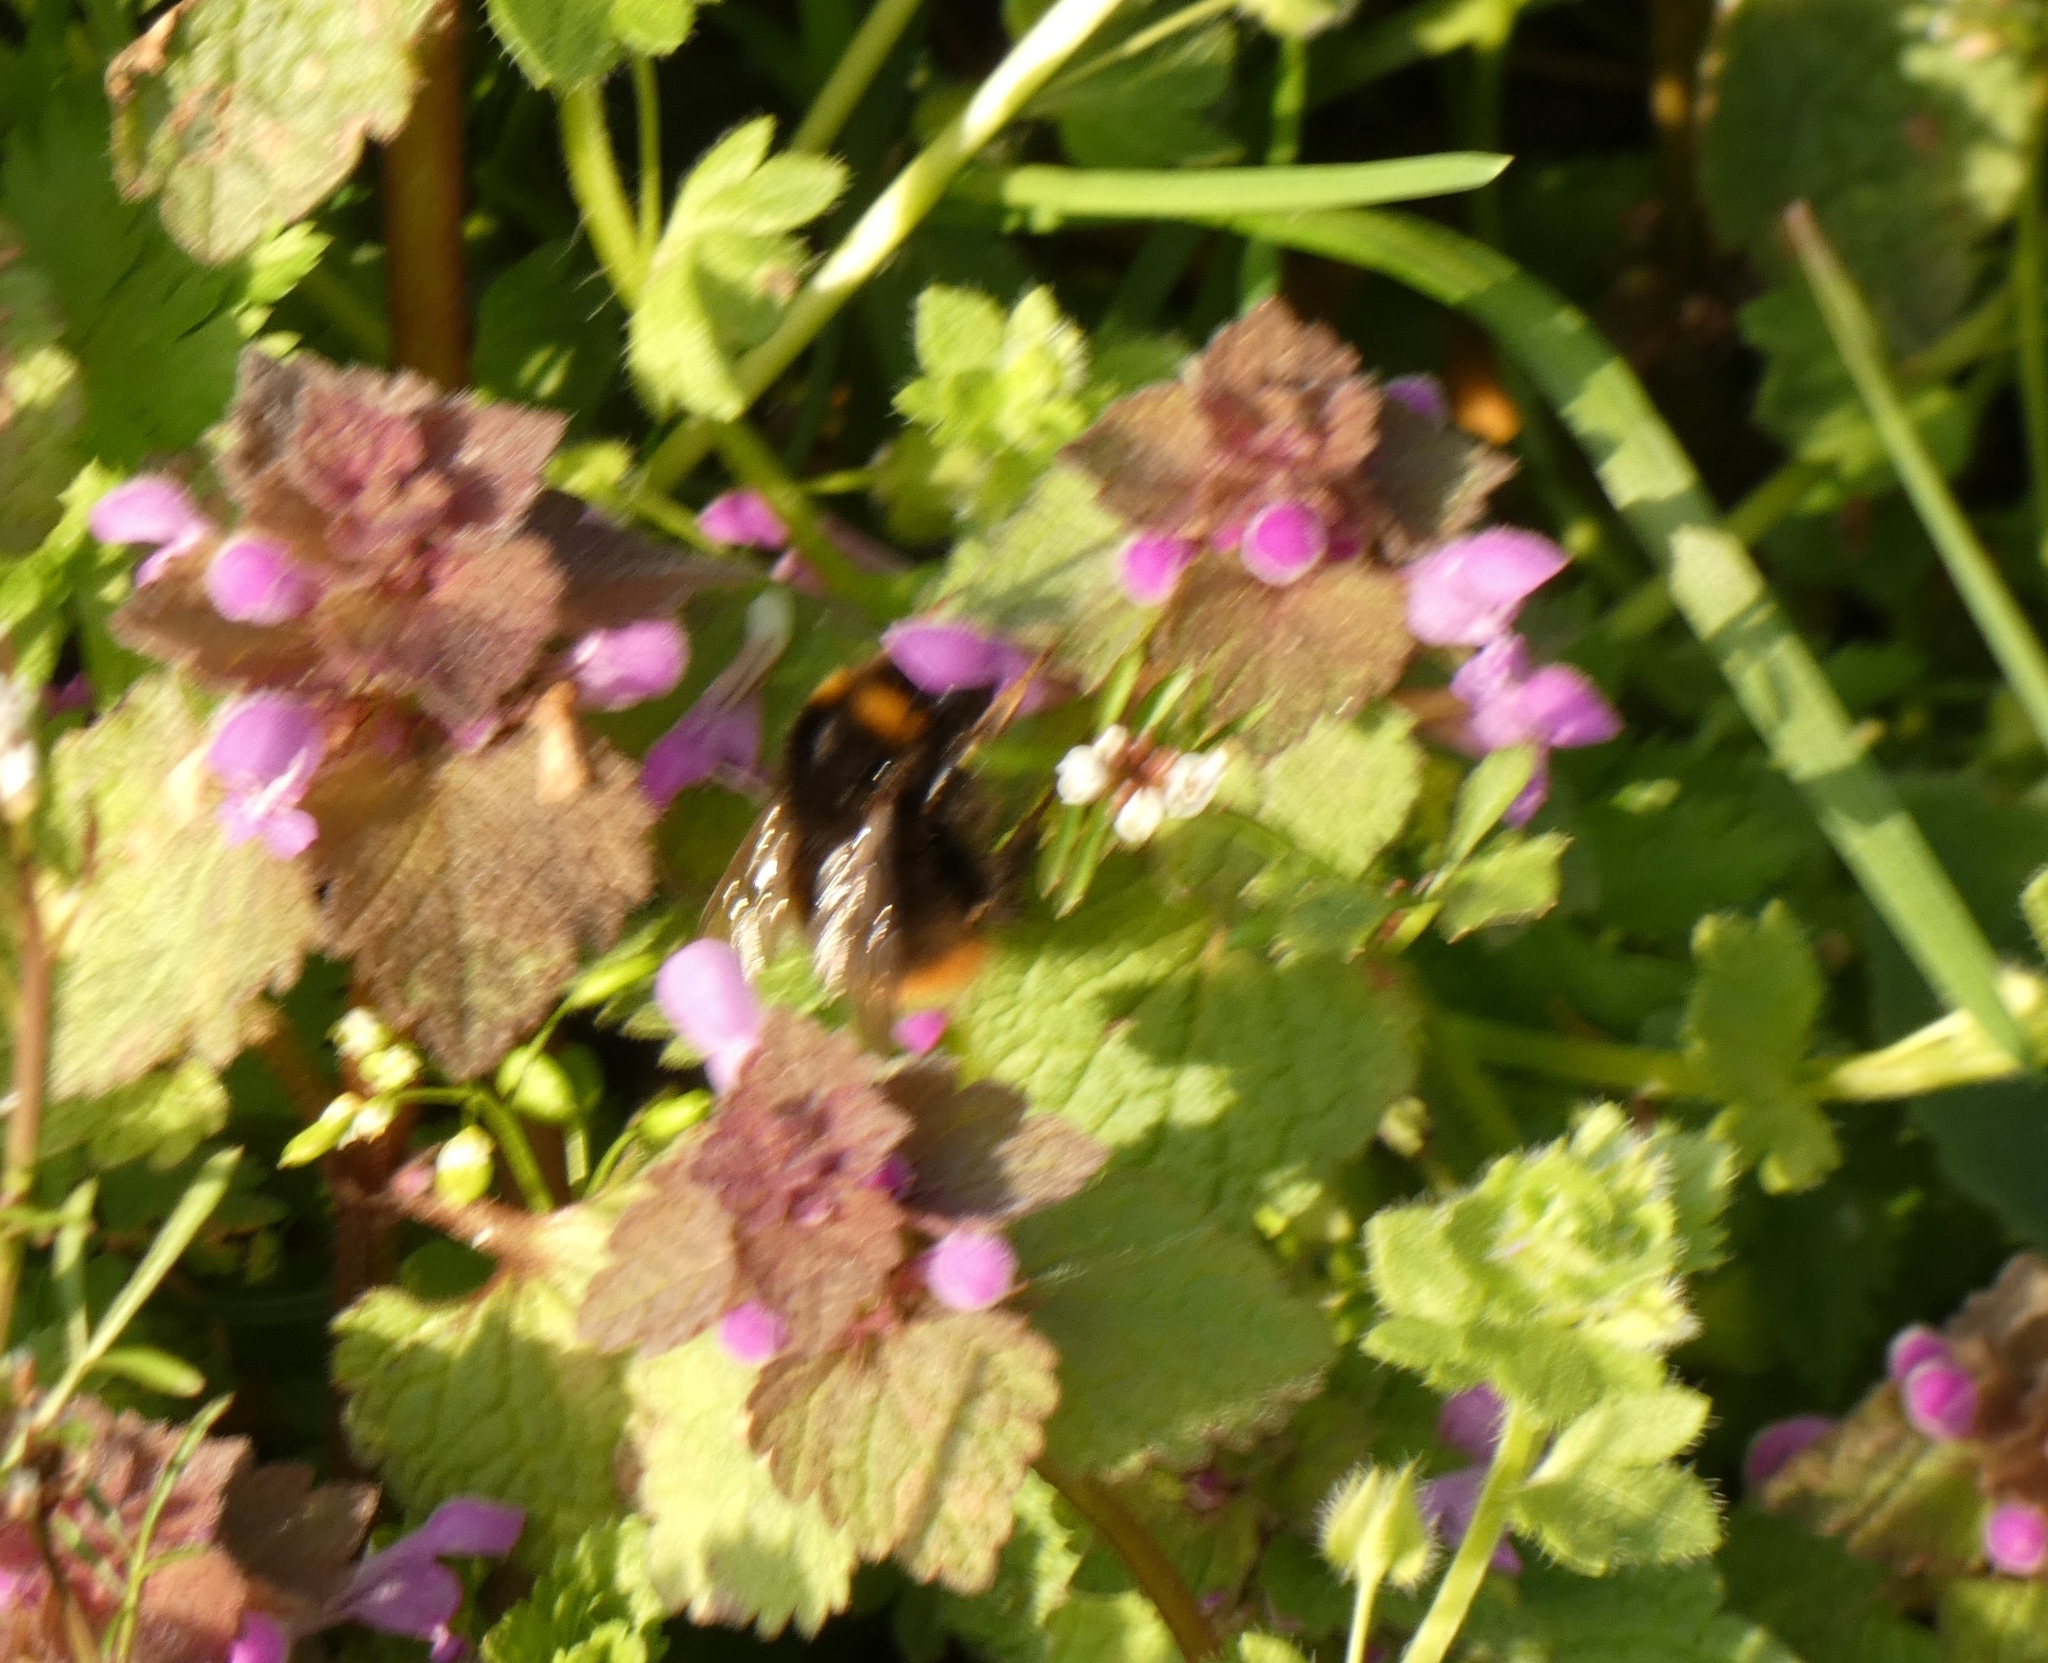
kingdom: Animalia
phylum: Arthropoda
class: Insecta
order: Hymenoptera
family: Apidae
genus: Bombus
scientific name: Bombus pratorum
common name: Early humble-bee
